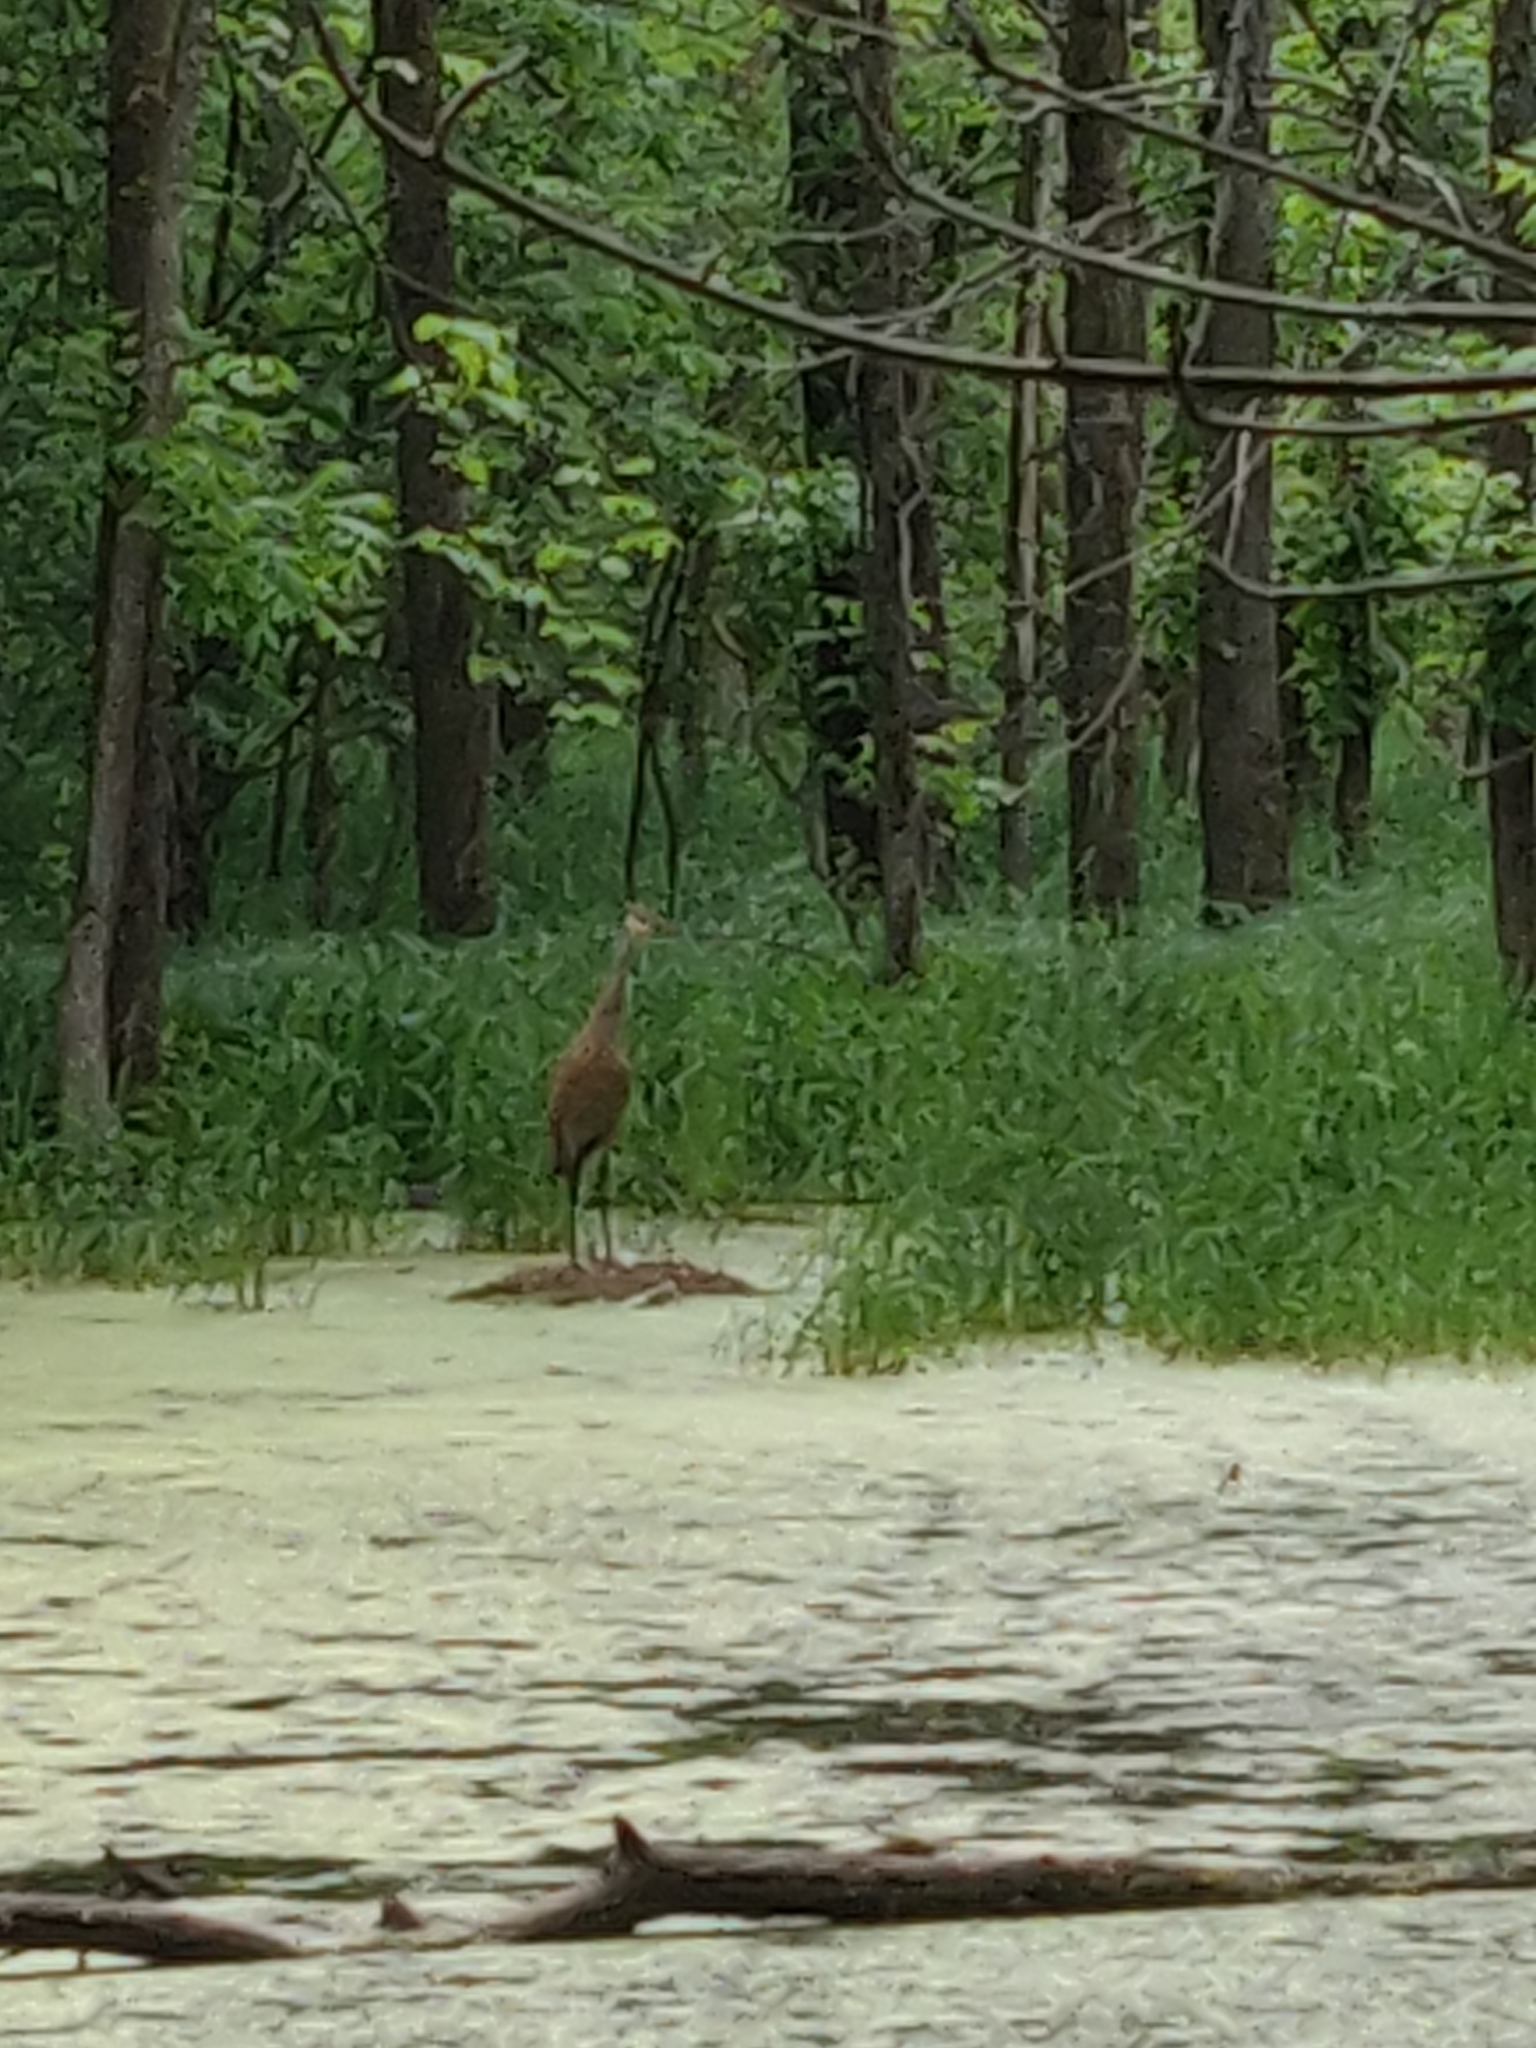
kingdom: Animalia
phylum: Chordata
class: Aves
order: Gruiformes
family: Gruidae
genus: Grus
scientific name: Grus canadensis
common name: Sandhill crane
